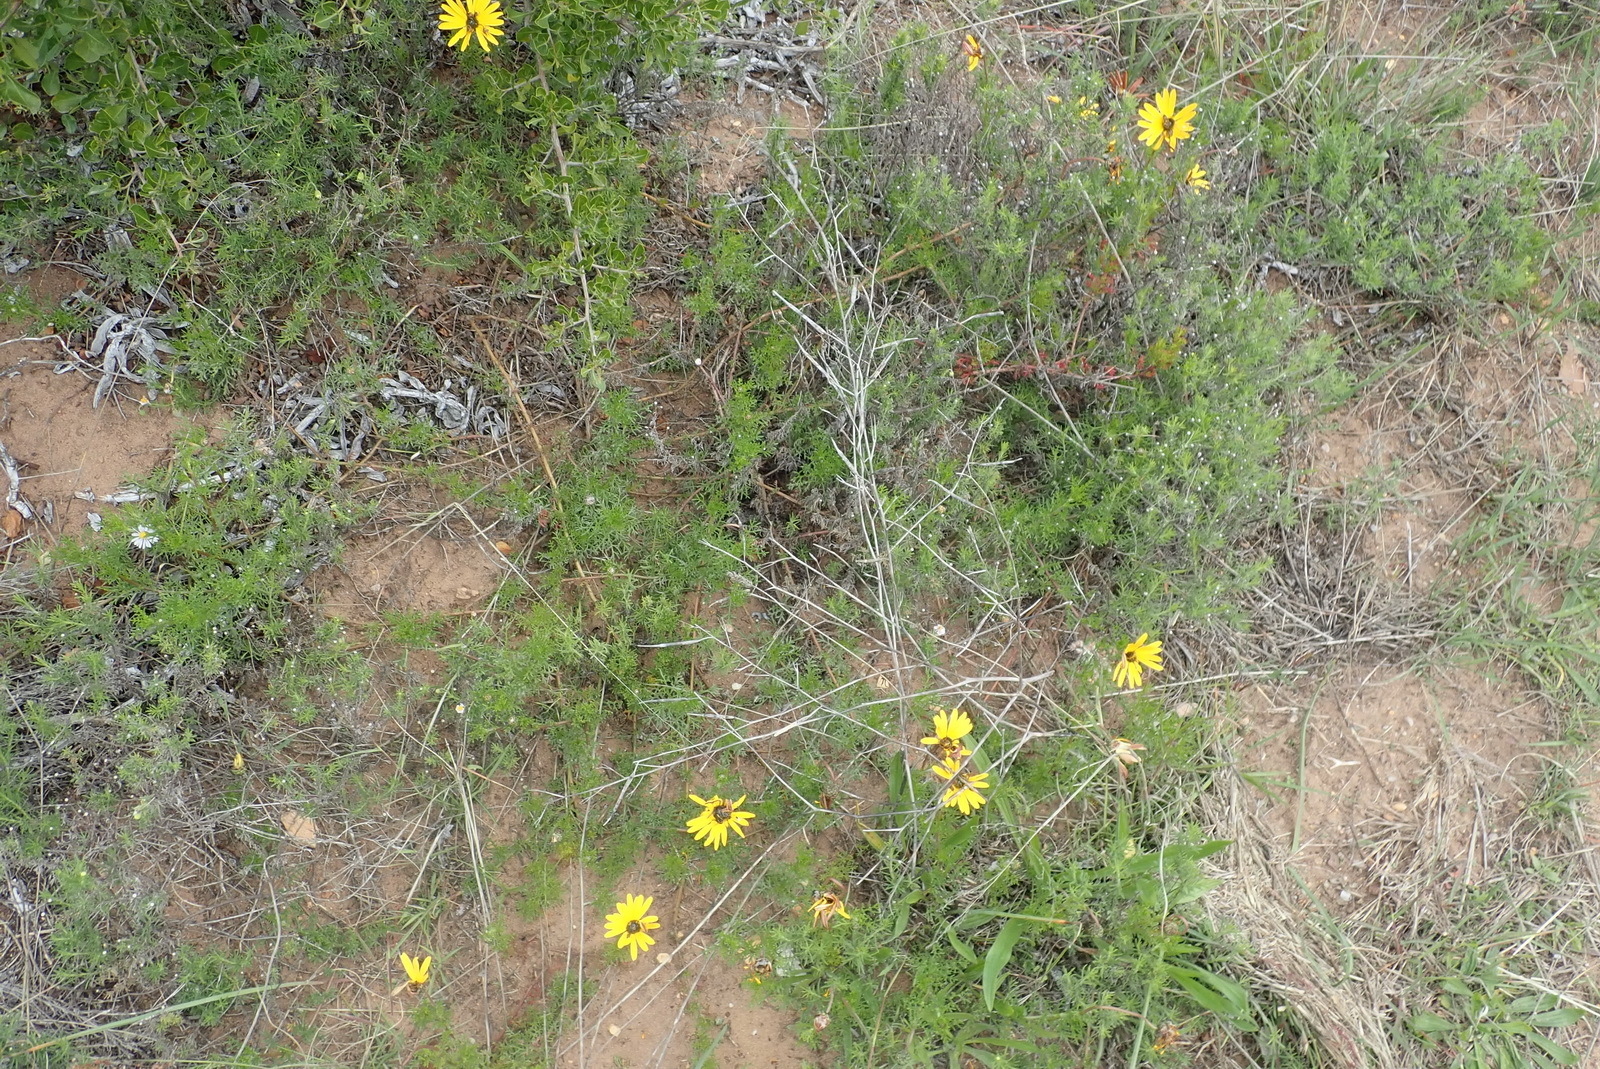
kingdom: Plantae
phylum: Tracheophyta
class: Magnoliopsida
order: Asterales
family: Asteraceae
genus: Ursinia
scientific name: Ursinia chrysanthemoides
